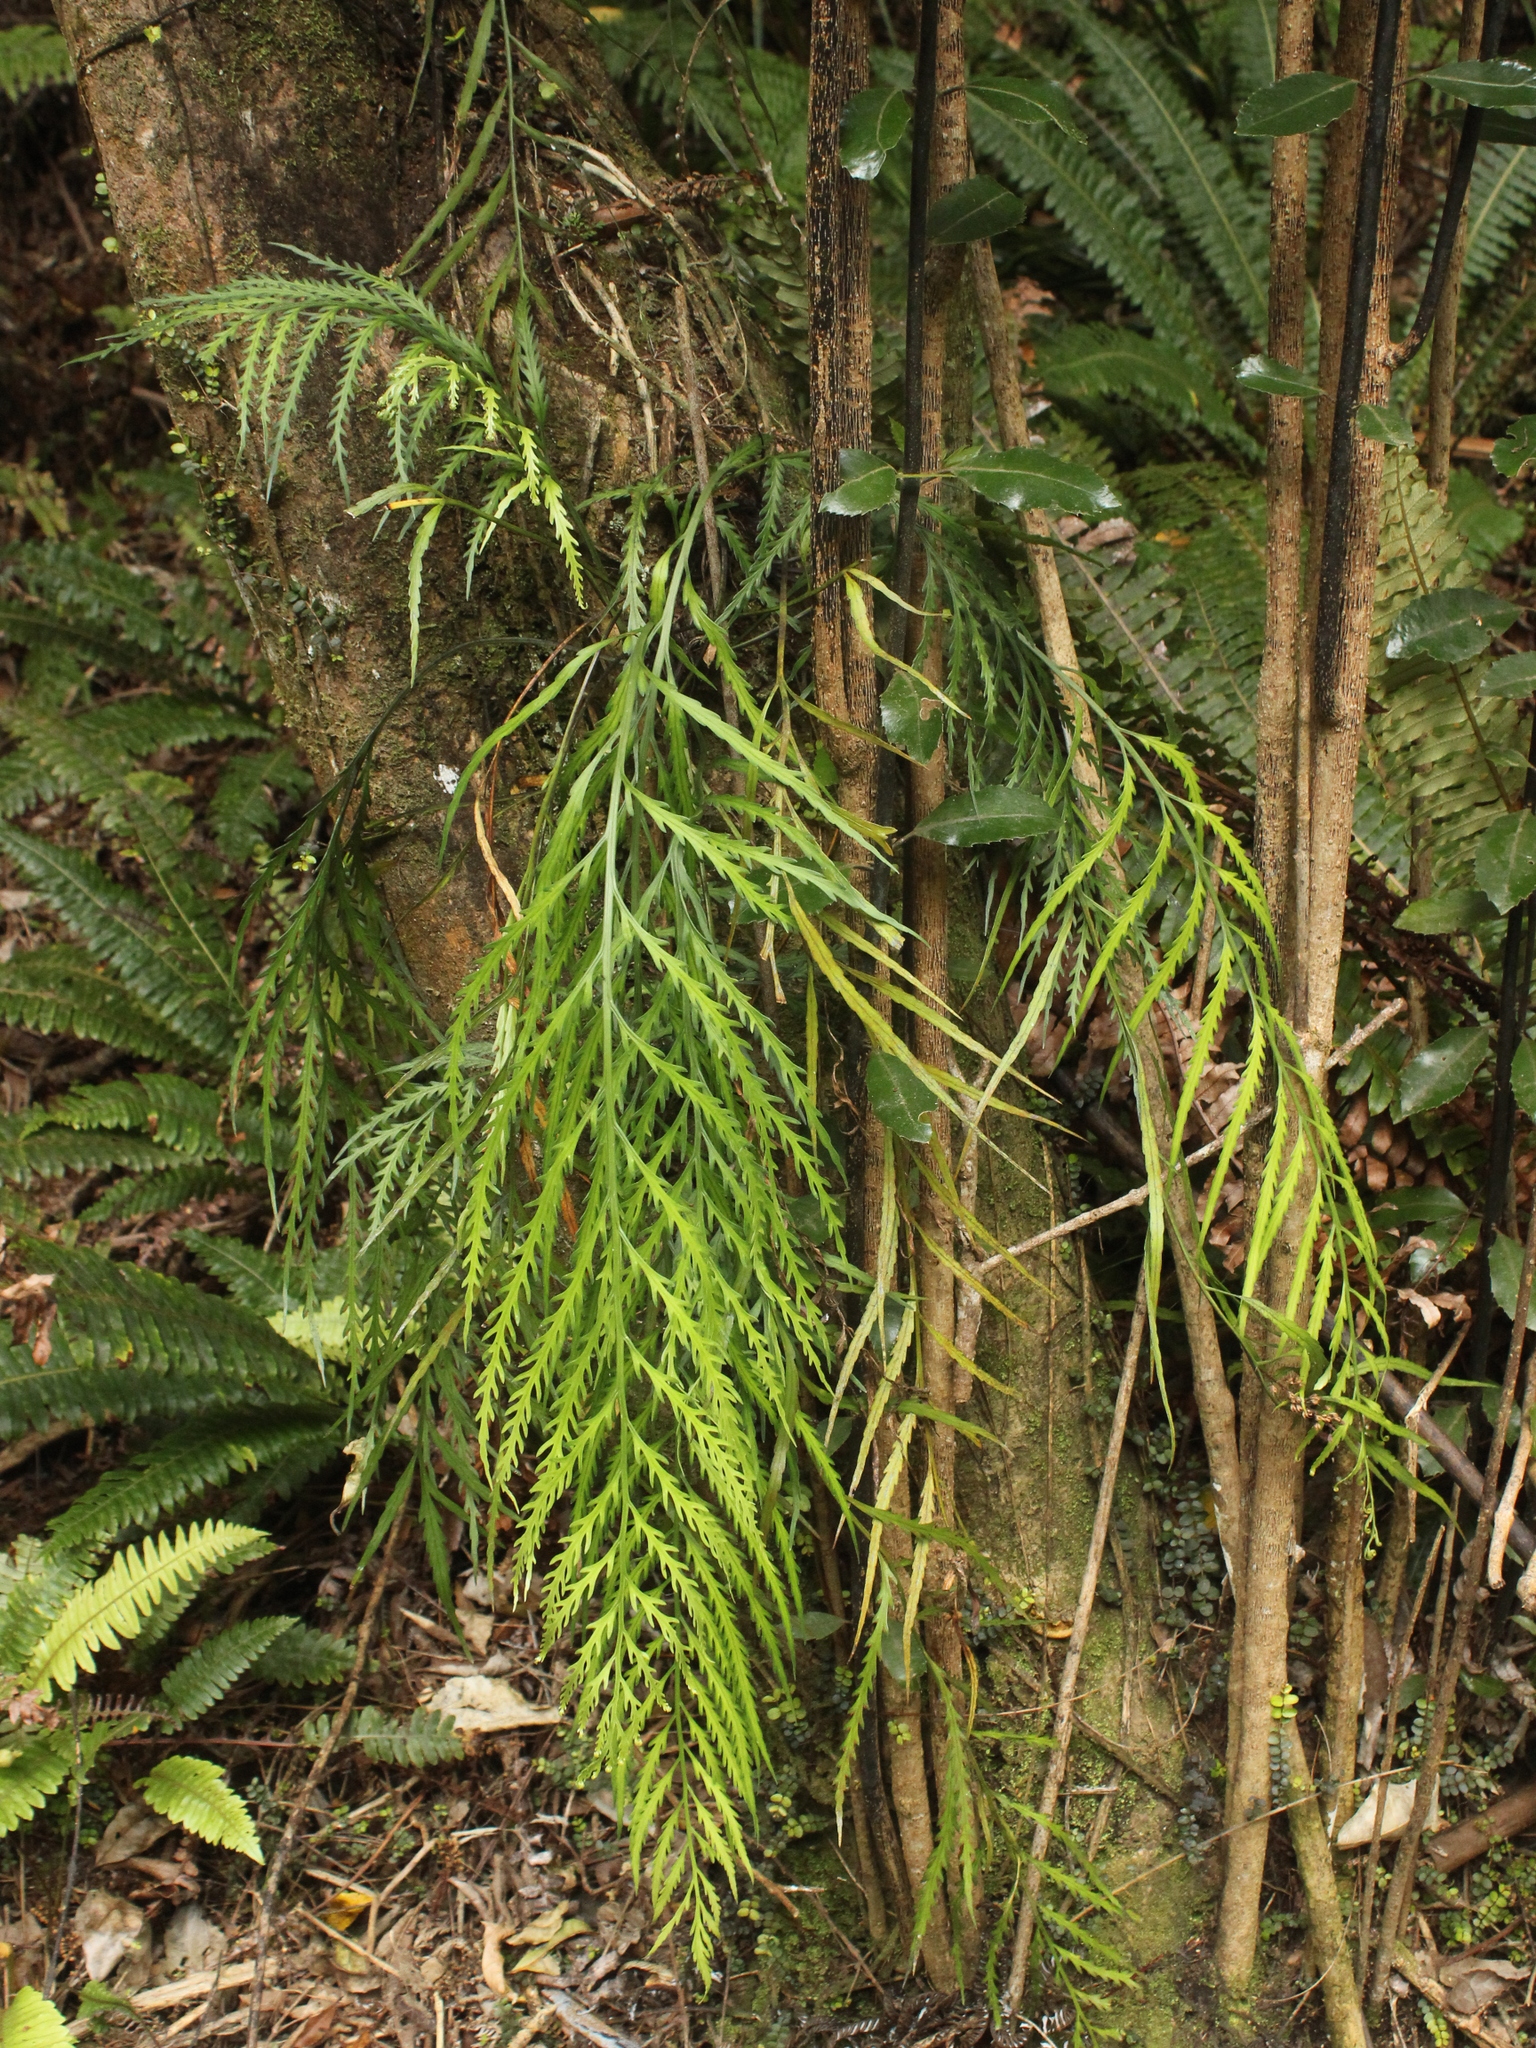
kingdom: Plantae
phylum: Tracheophyta
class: Polypodiopsida
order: Polypodiales
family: Aspleniaceae
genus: Asplenium
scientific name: Asplenium flaccidum
